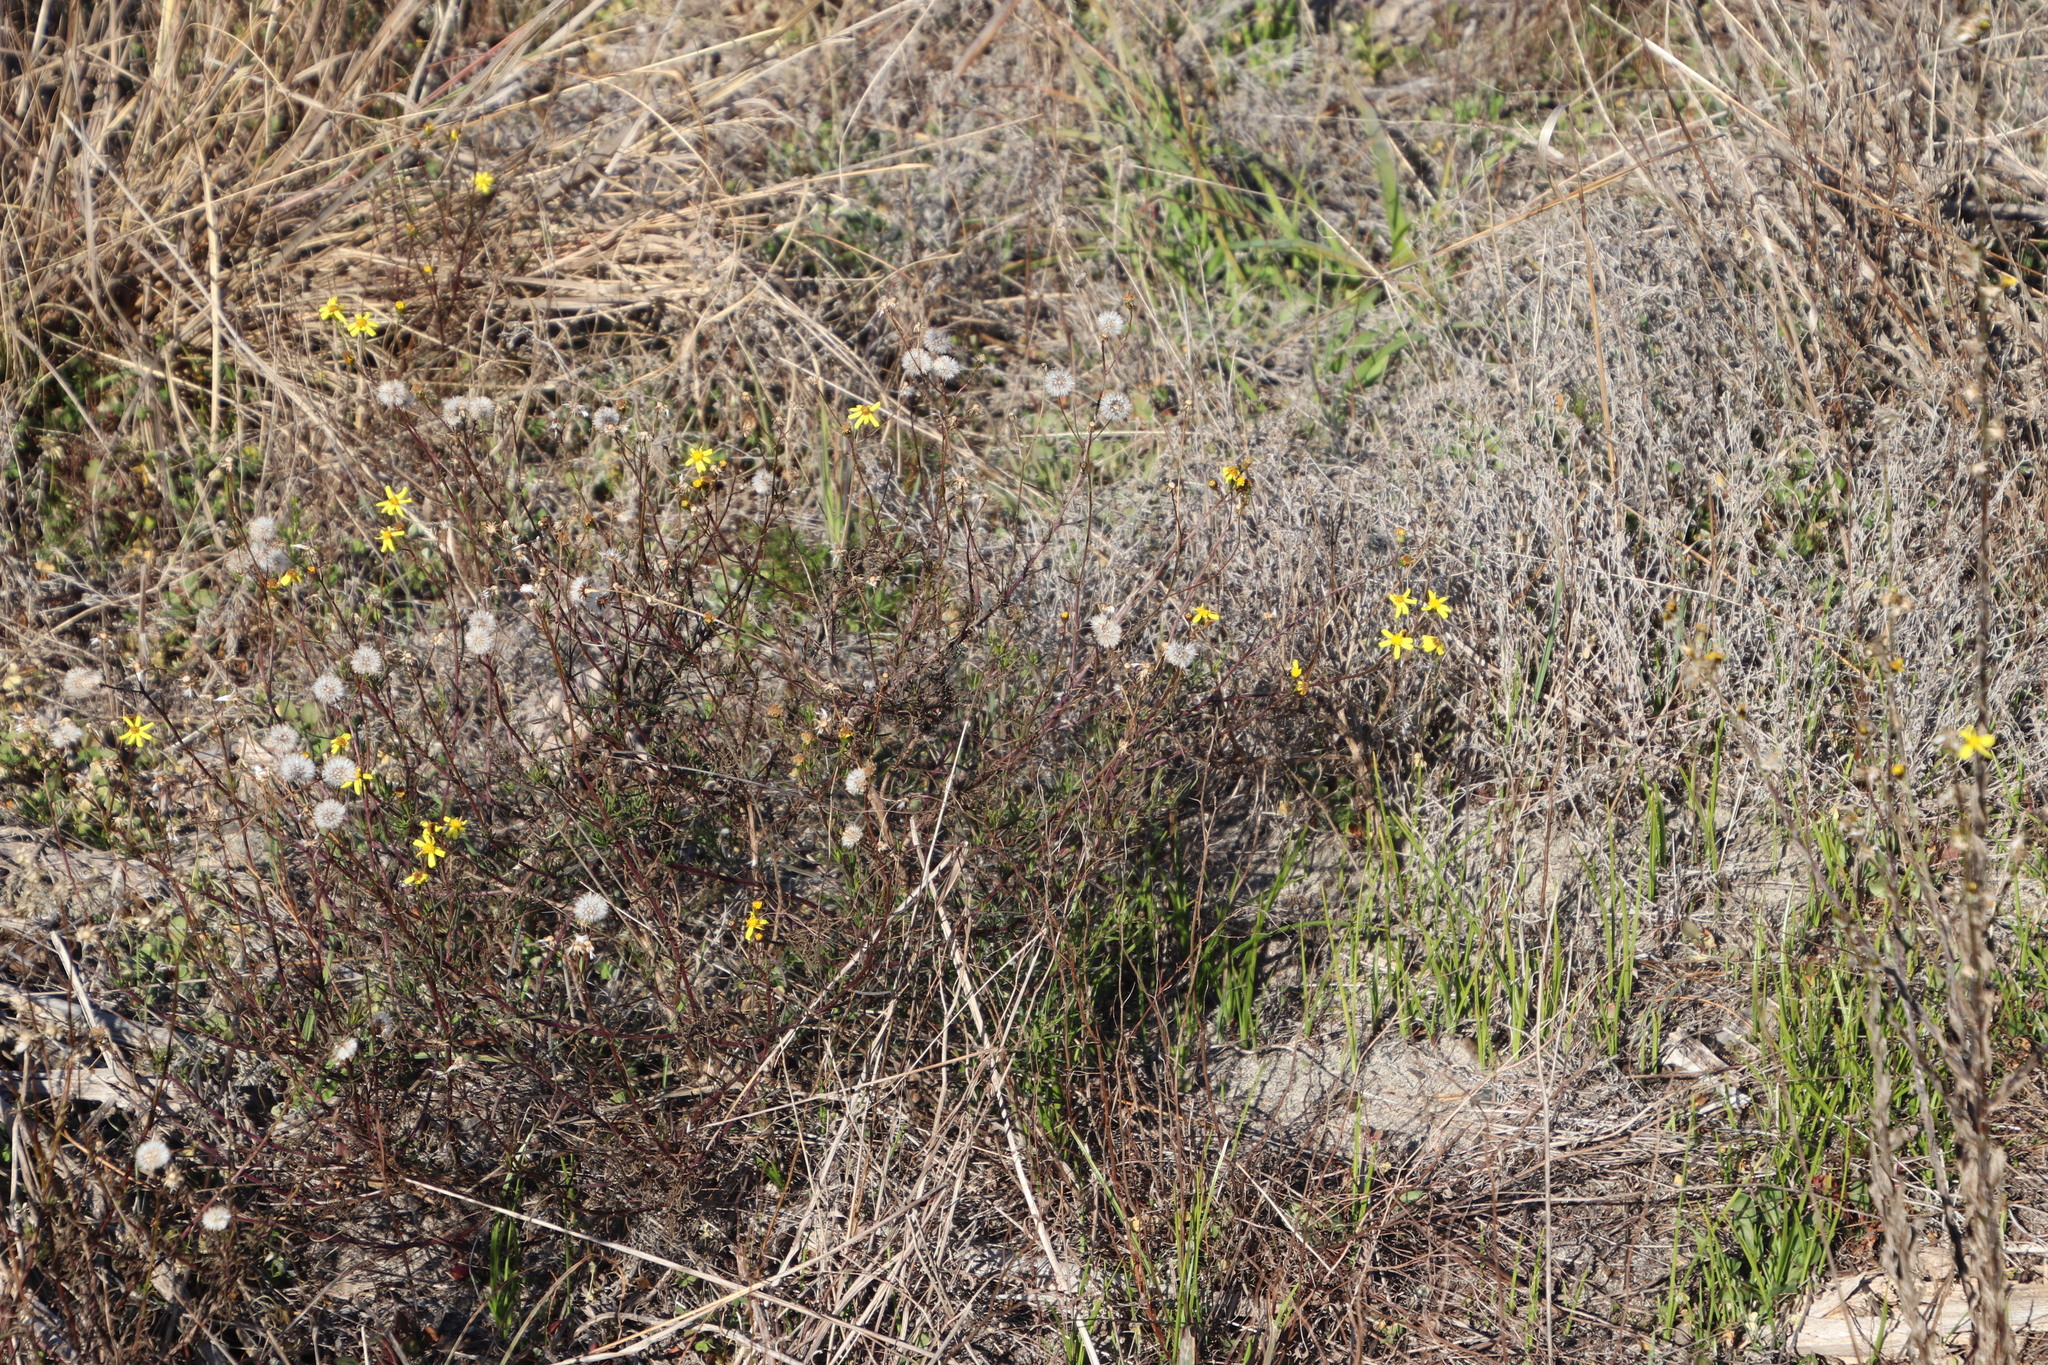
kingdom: Plantae
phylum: Tracheophyta
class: Magnoliopsida
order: Asterales
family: Asteraceae
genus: Senecio
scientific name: Senecio burchellii
